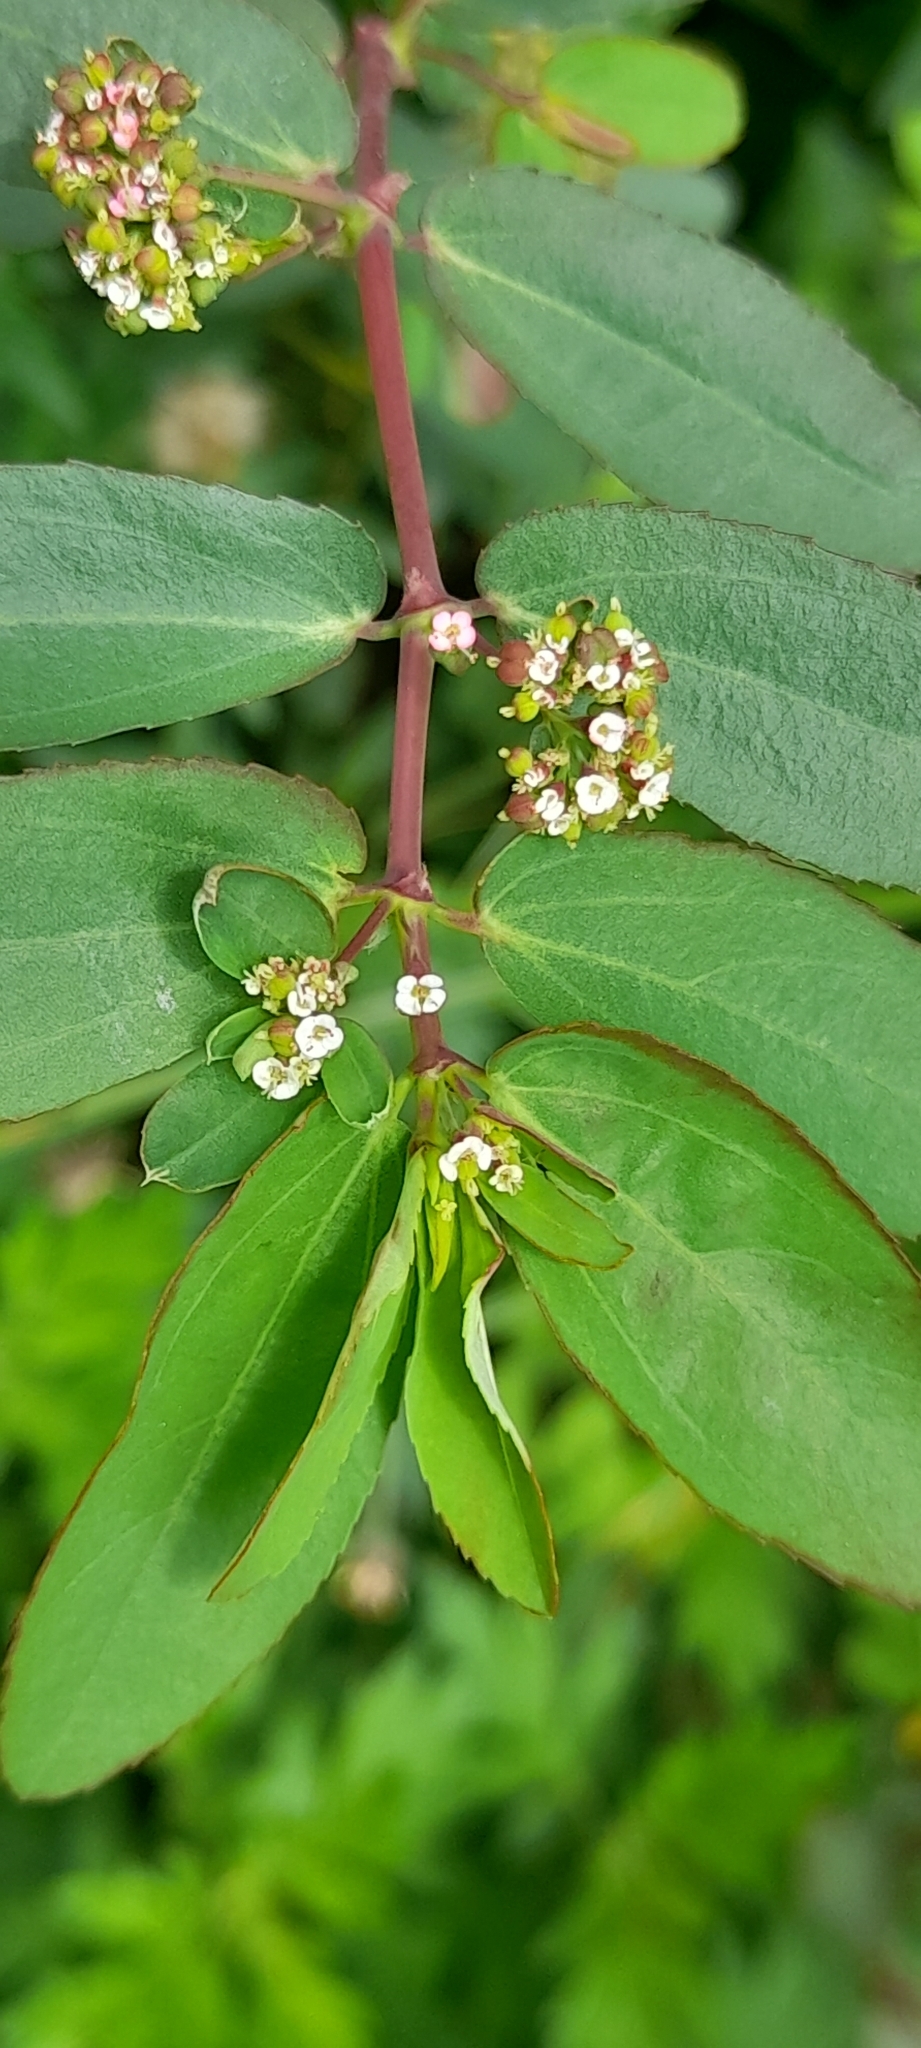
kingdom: Plantae
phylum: Tracheophyta
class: Magnoliopsida
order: Malpighiales
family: Euphorbiaceae
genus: Euphorbia
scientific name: Euphorbia hypericifolia
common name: Graceful sandmat
